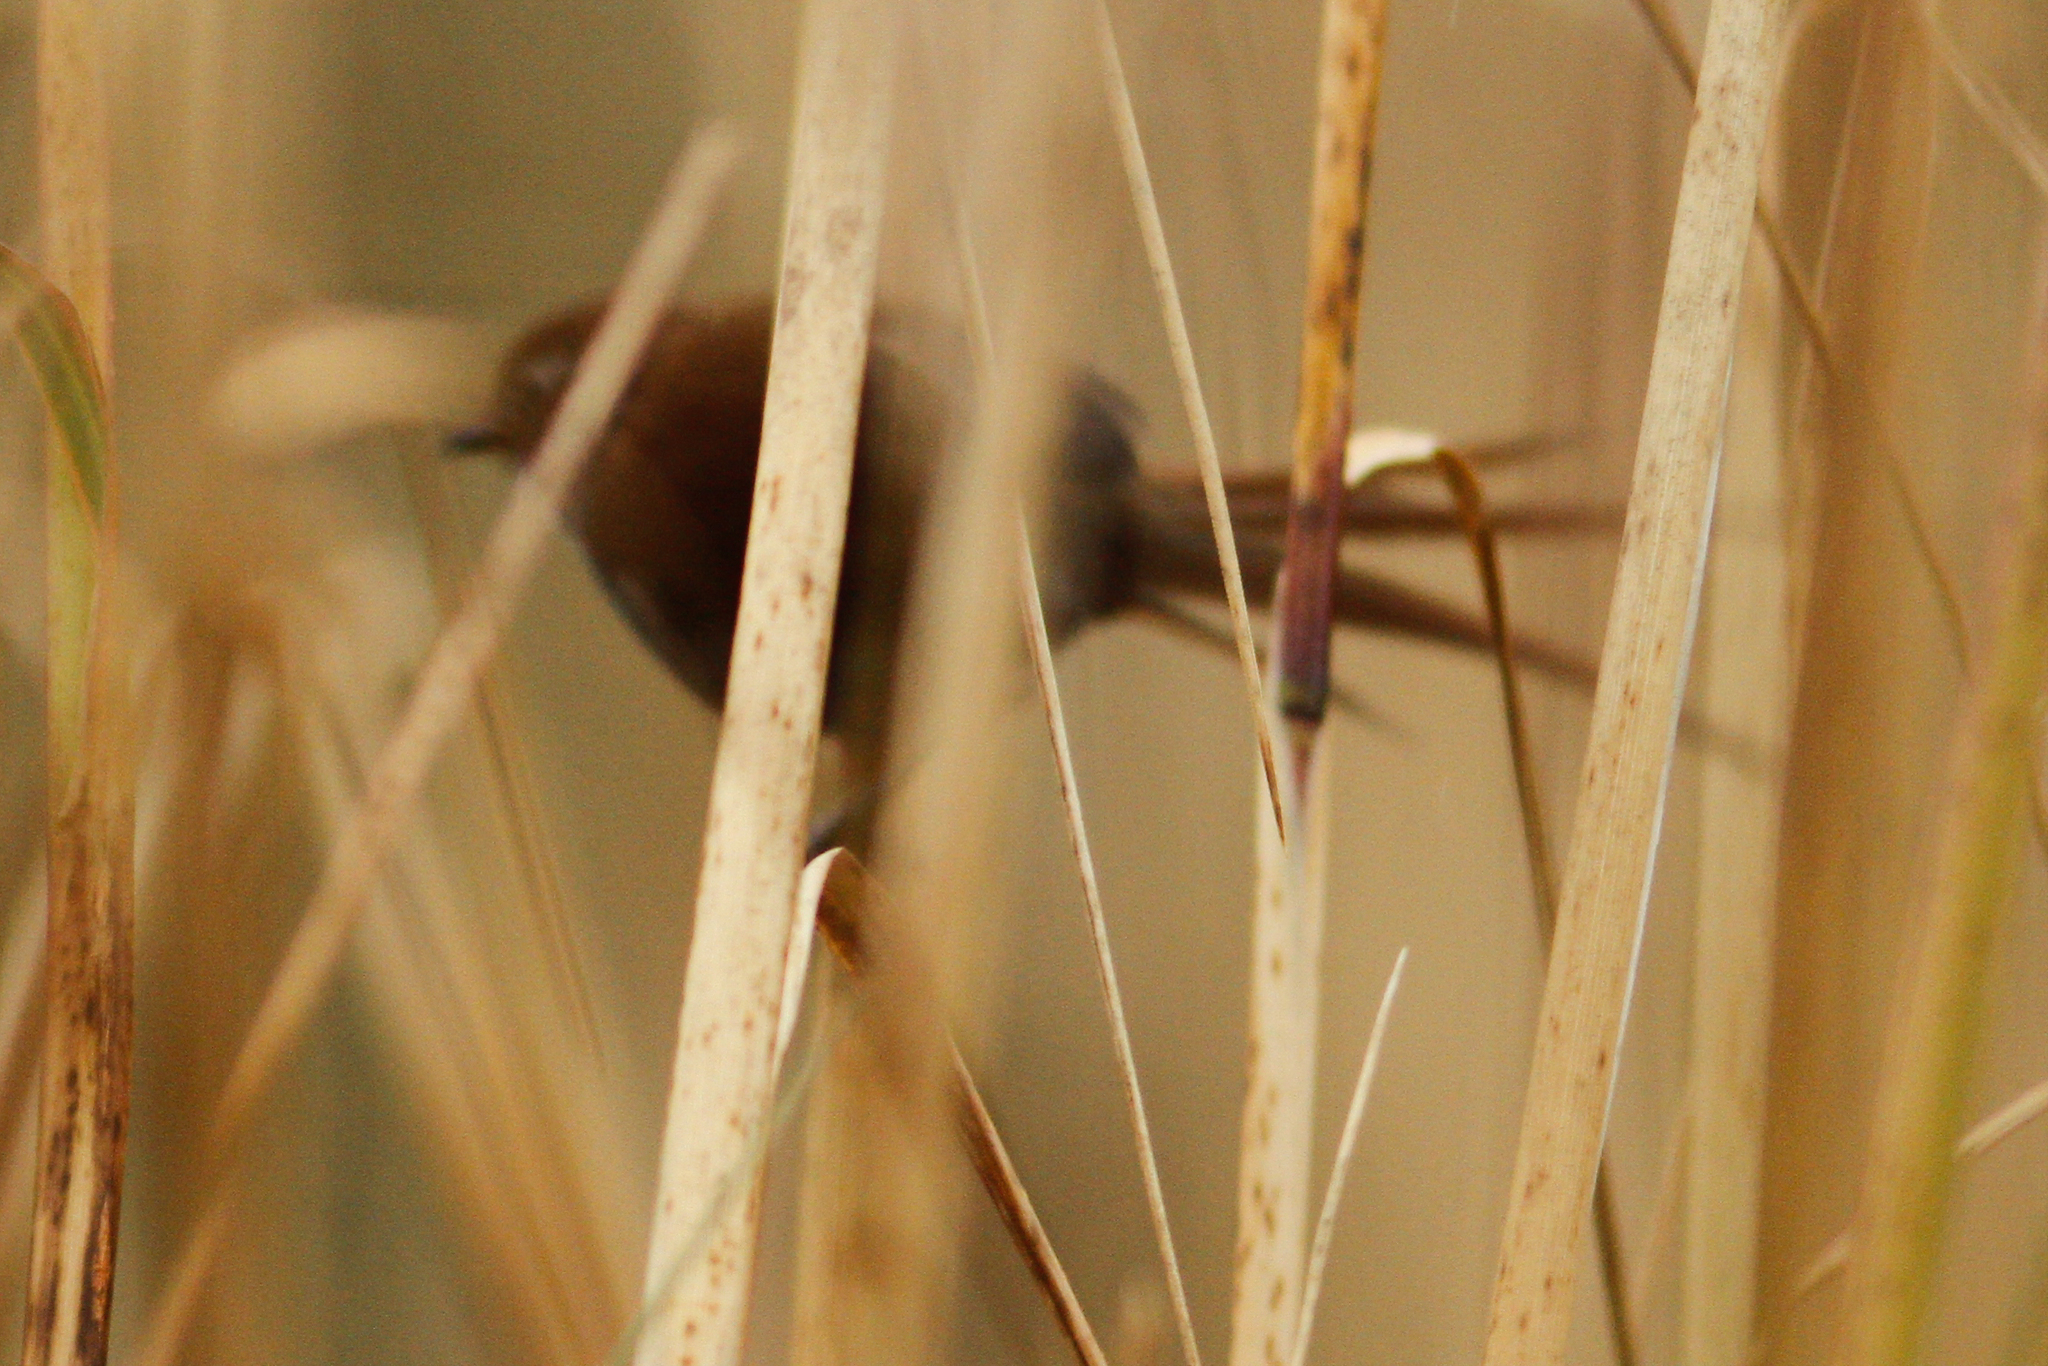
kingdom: Animalia
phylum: Chordata
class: Aves
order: Passeriformes
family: Furnariidae
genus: Schizoeaca
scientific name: Schizoeaca fuliginosa
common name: White-chinned thistletail
